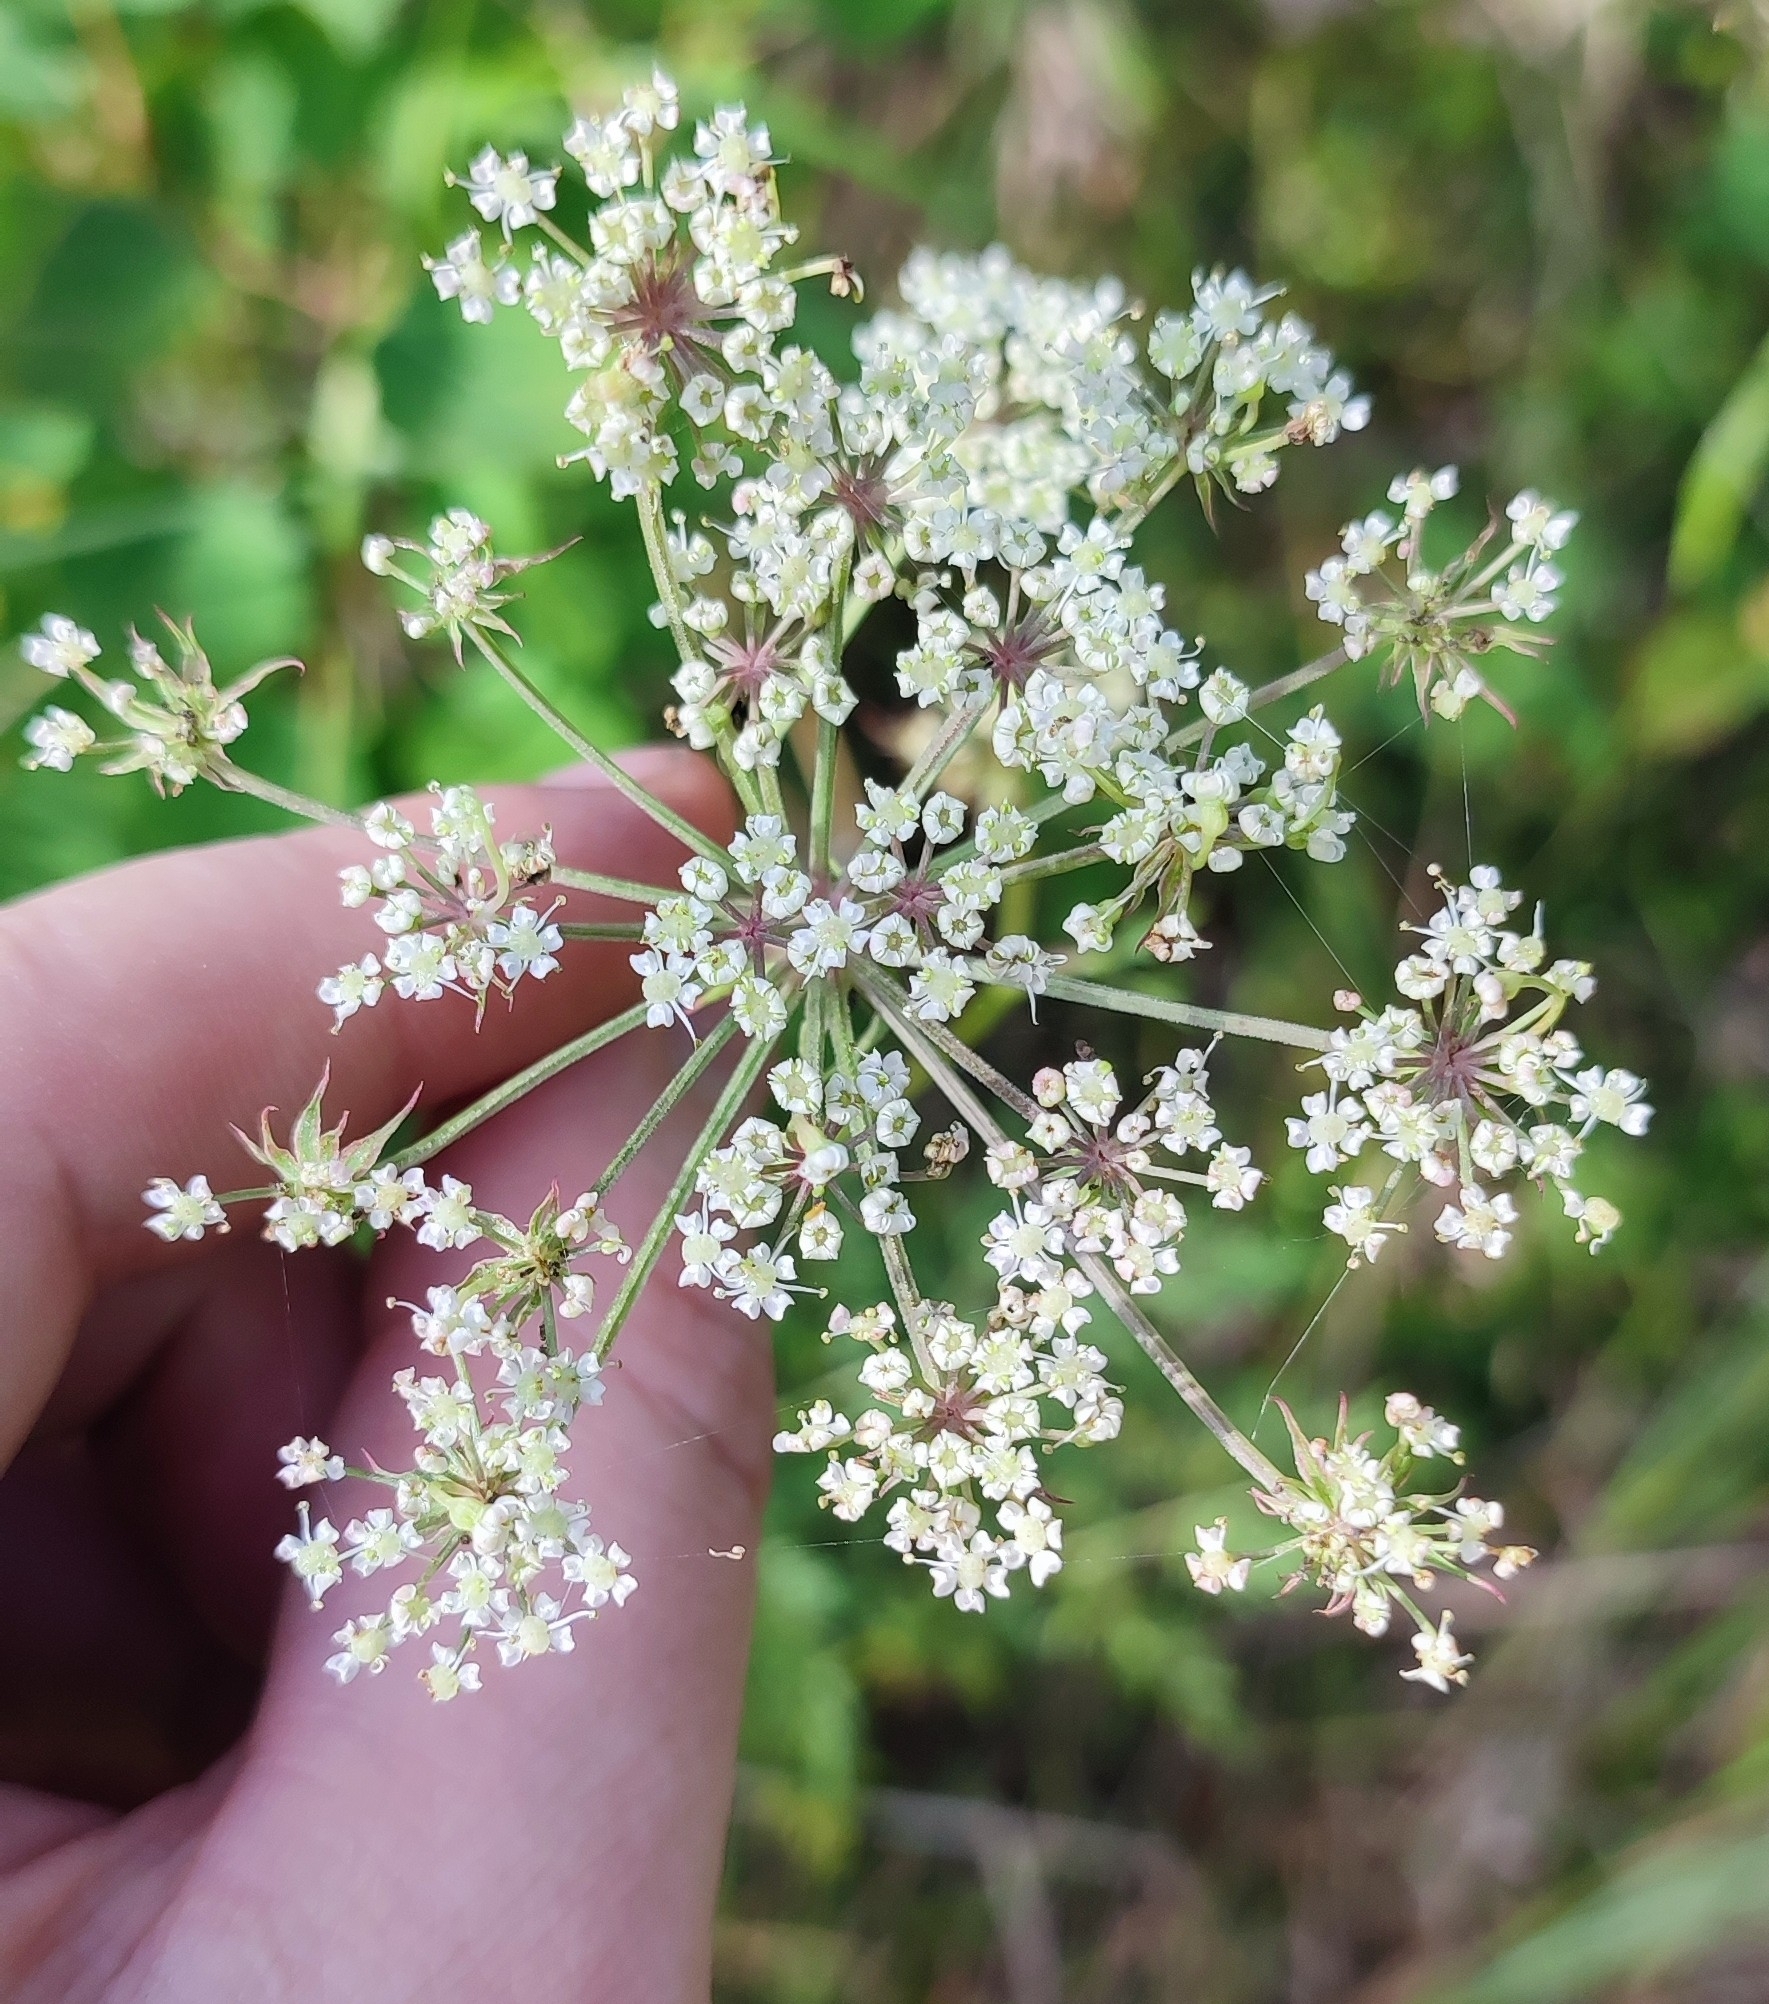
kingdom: Plantae
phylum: Tracheophyta
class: Magnoliopsida
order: Apiales
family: Apiaceae
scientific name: Apiaceae
